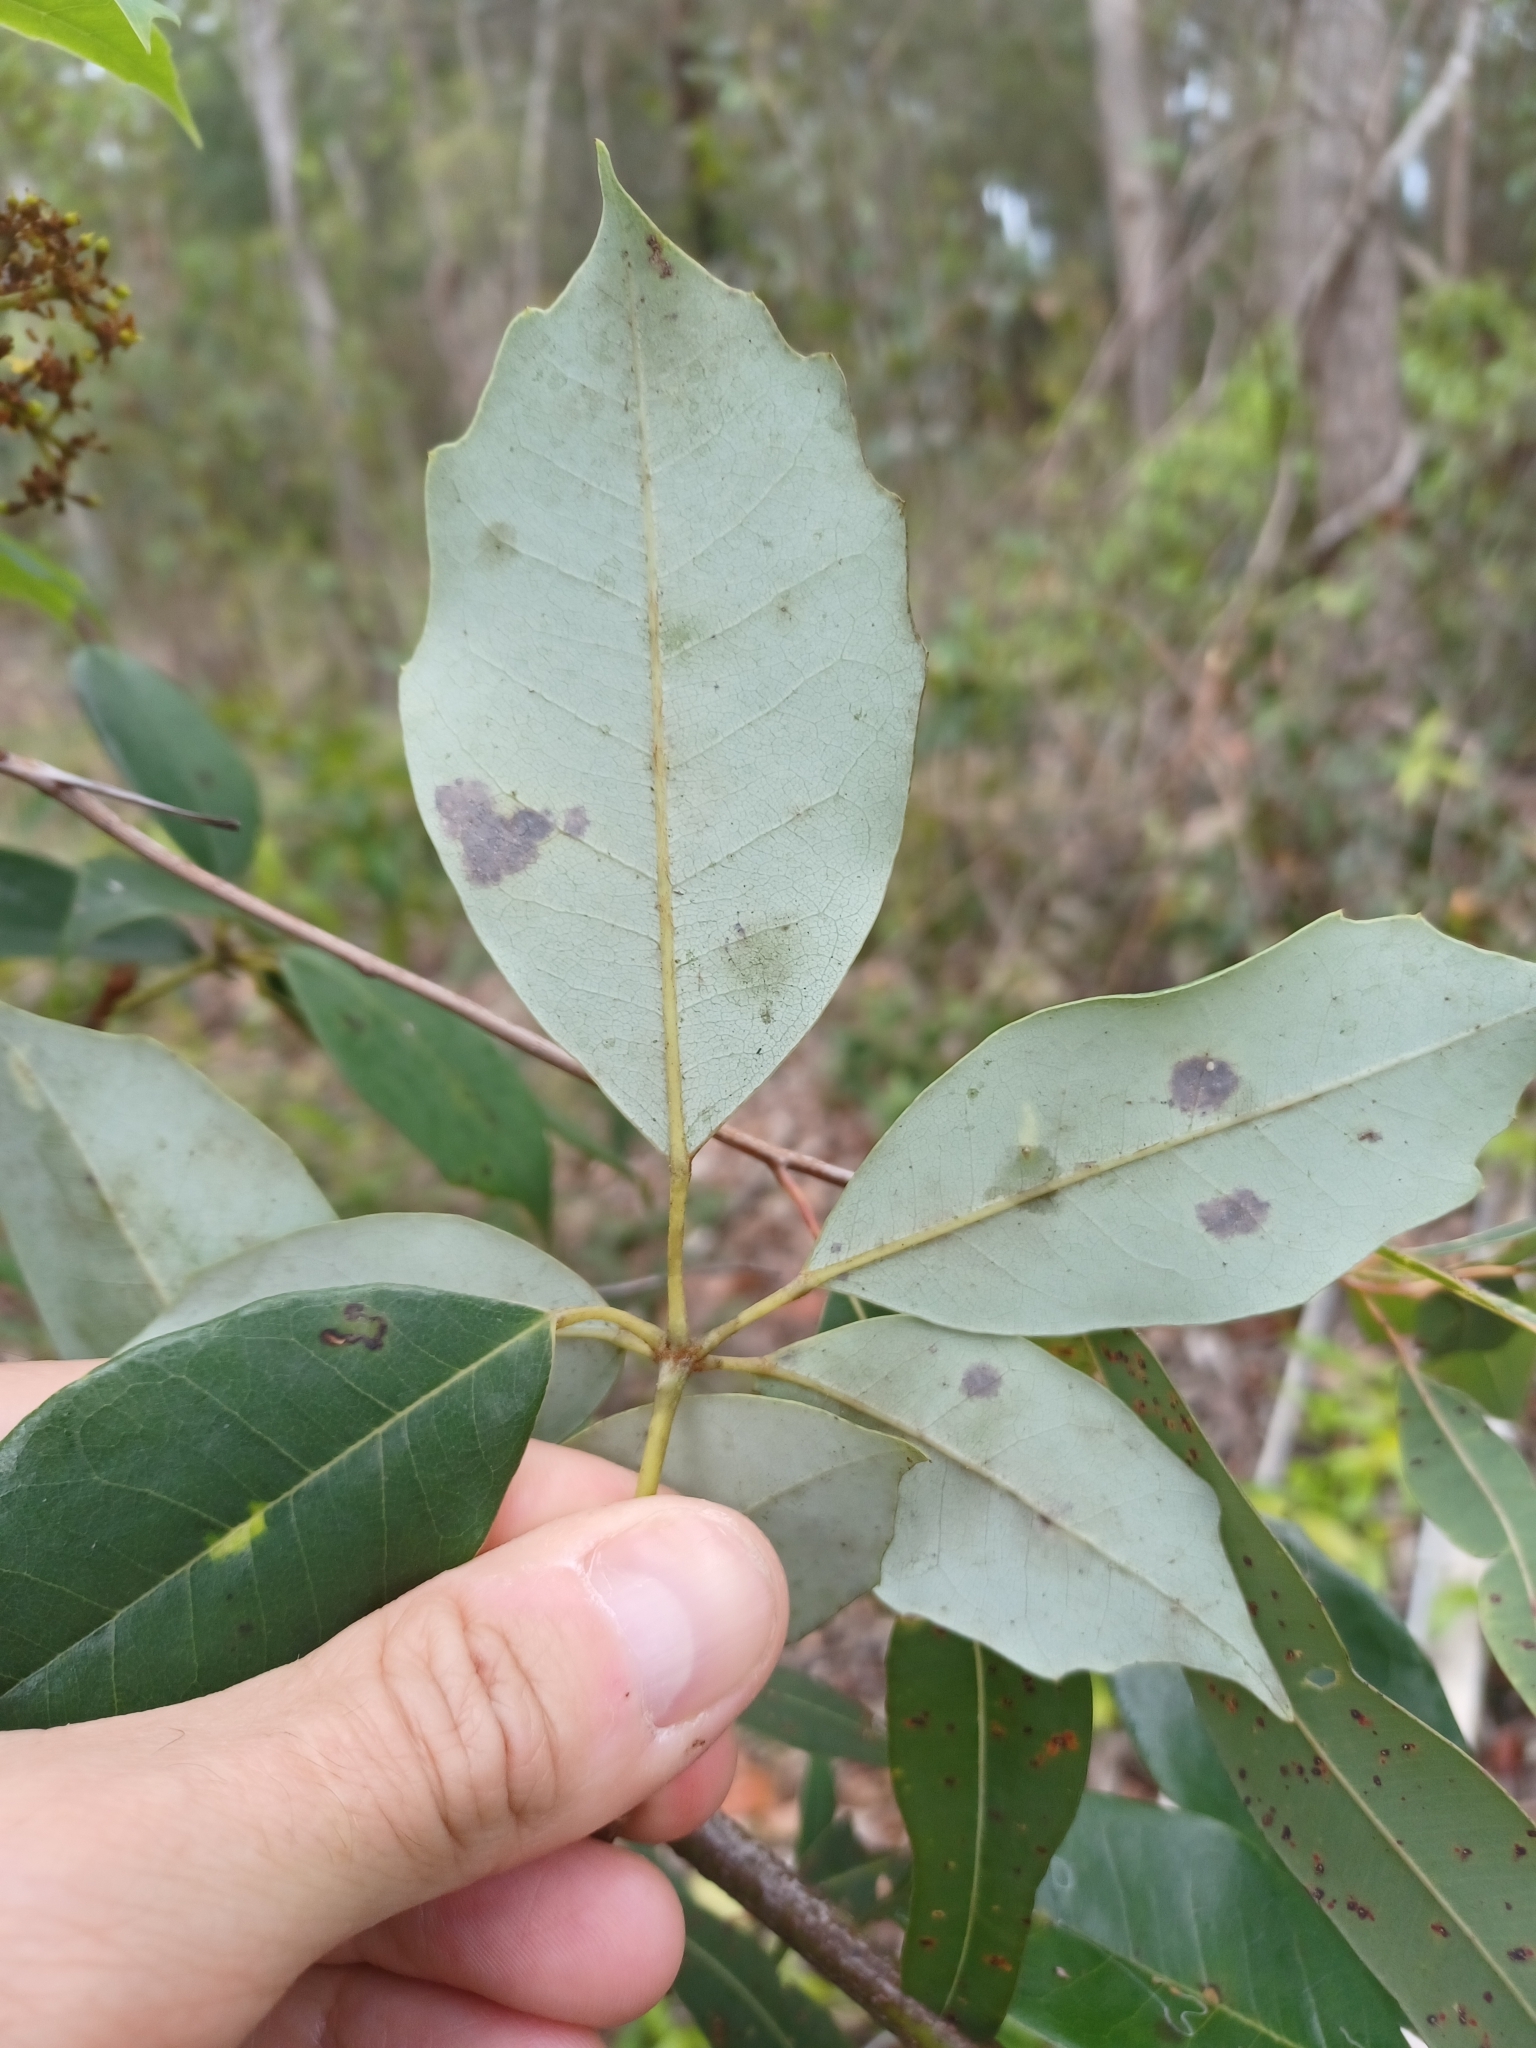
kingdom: Plantae
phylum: Tracheophyta
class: Magnoliopsida
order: Vitales
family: Vitaceae
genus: Nothocissus
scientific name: Nothocissus hypoglauca
